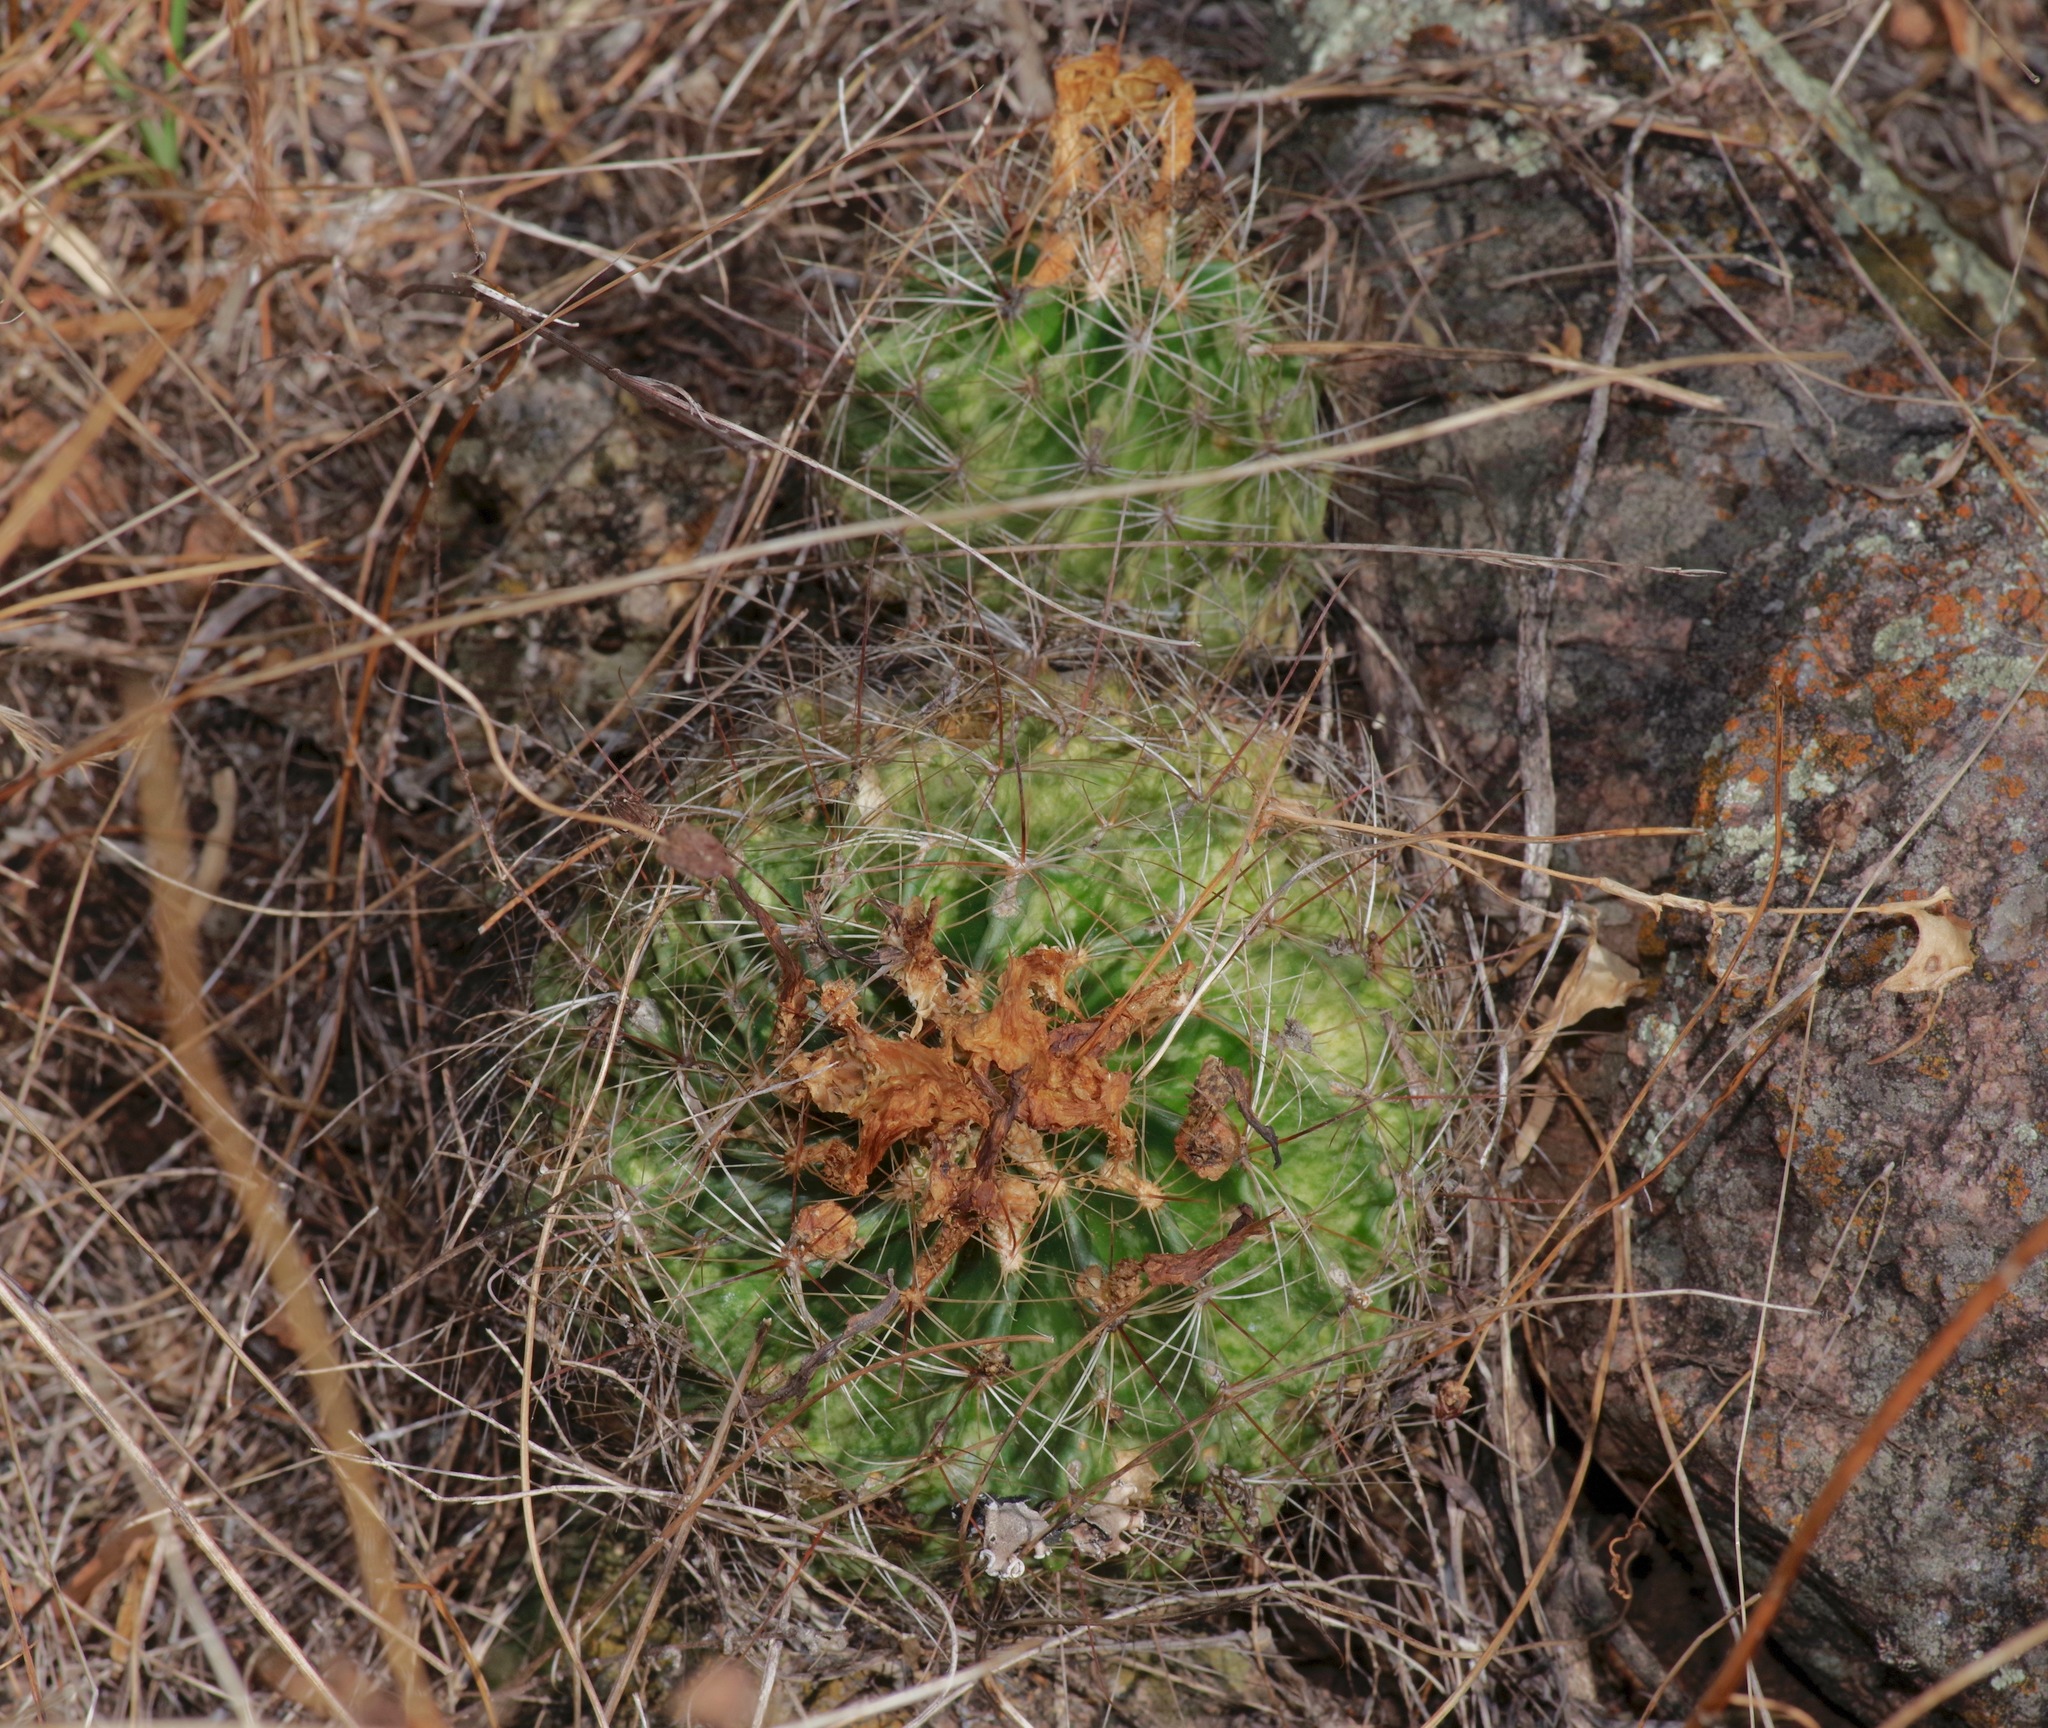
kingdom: Plantae
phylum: Tracheophyta
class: Magnoliopsida
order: Caryophyllales
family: Cactaceae
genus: Thelocactus
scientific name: Thelocactus setispinus
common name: Miniature barrel cactus
